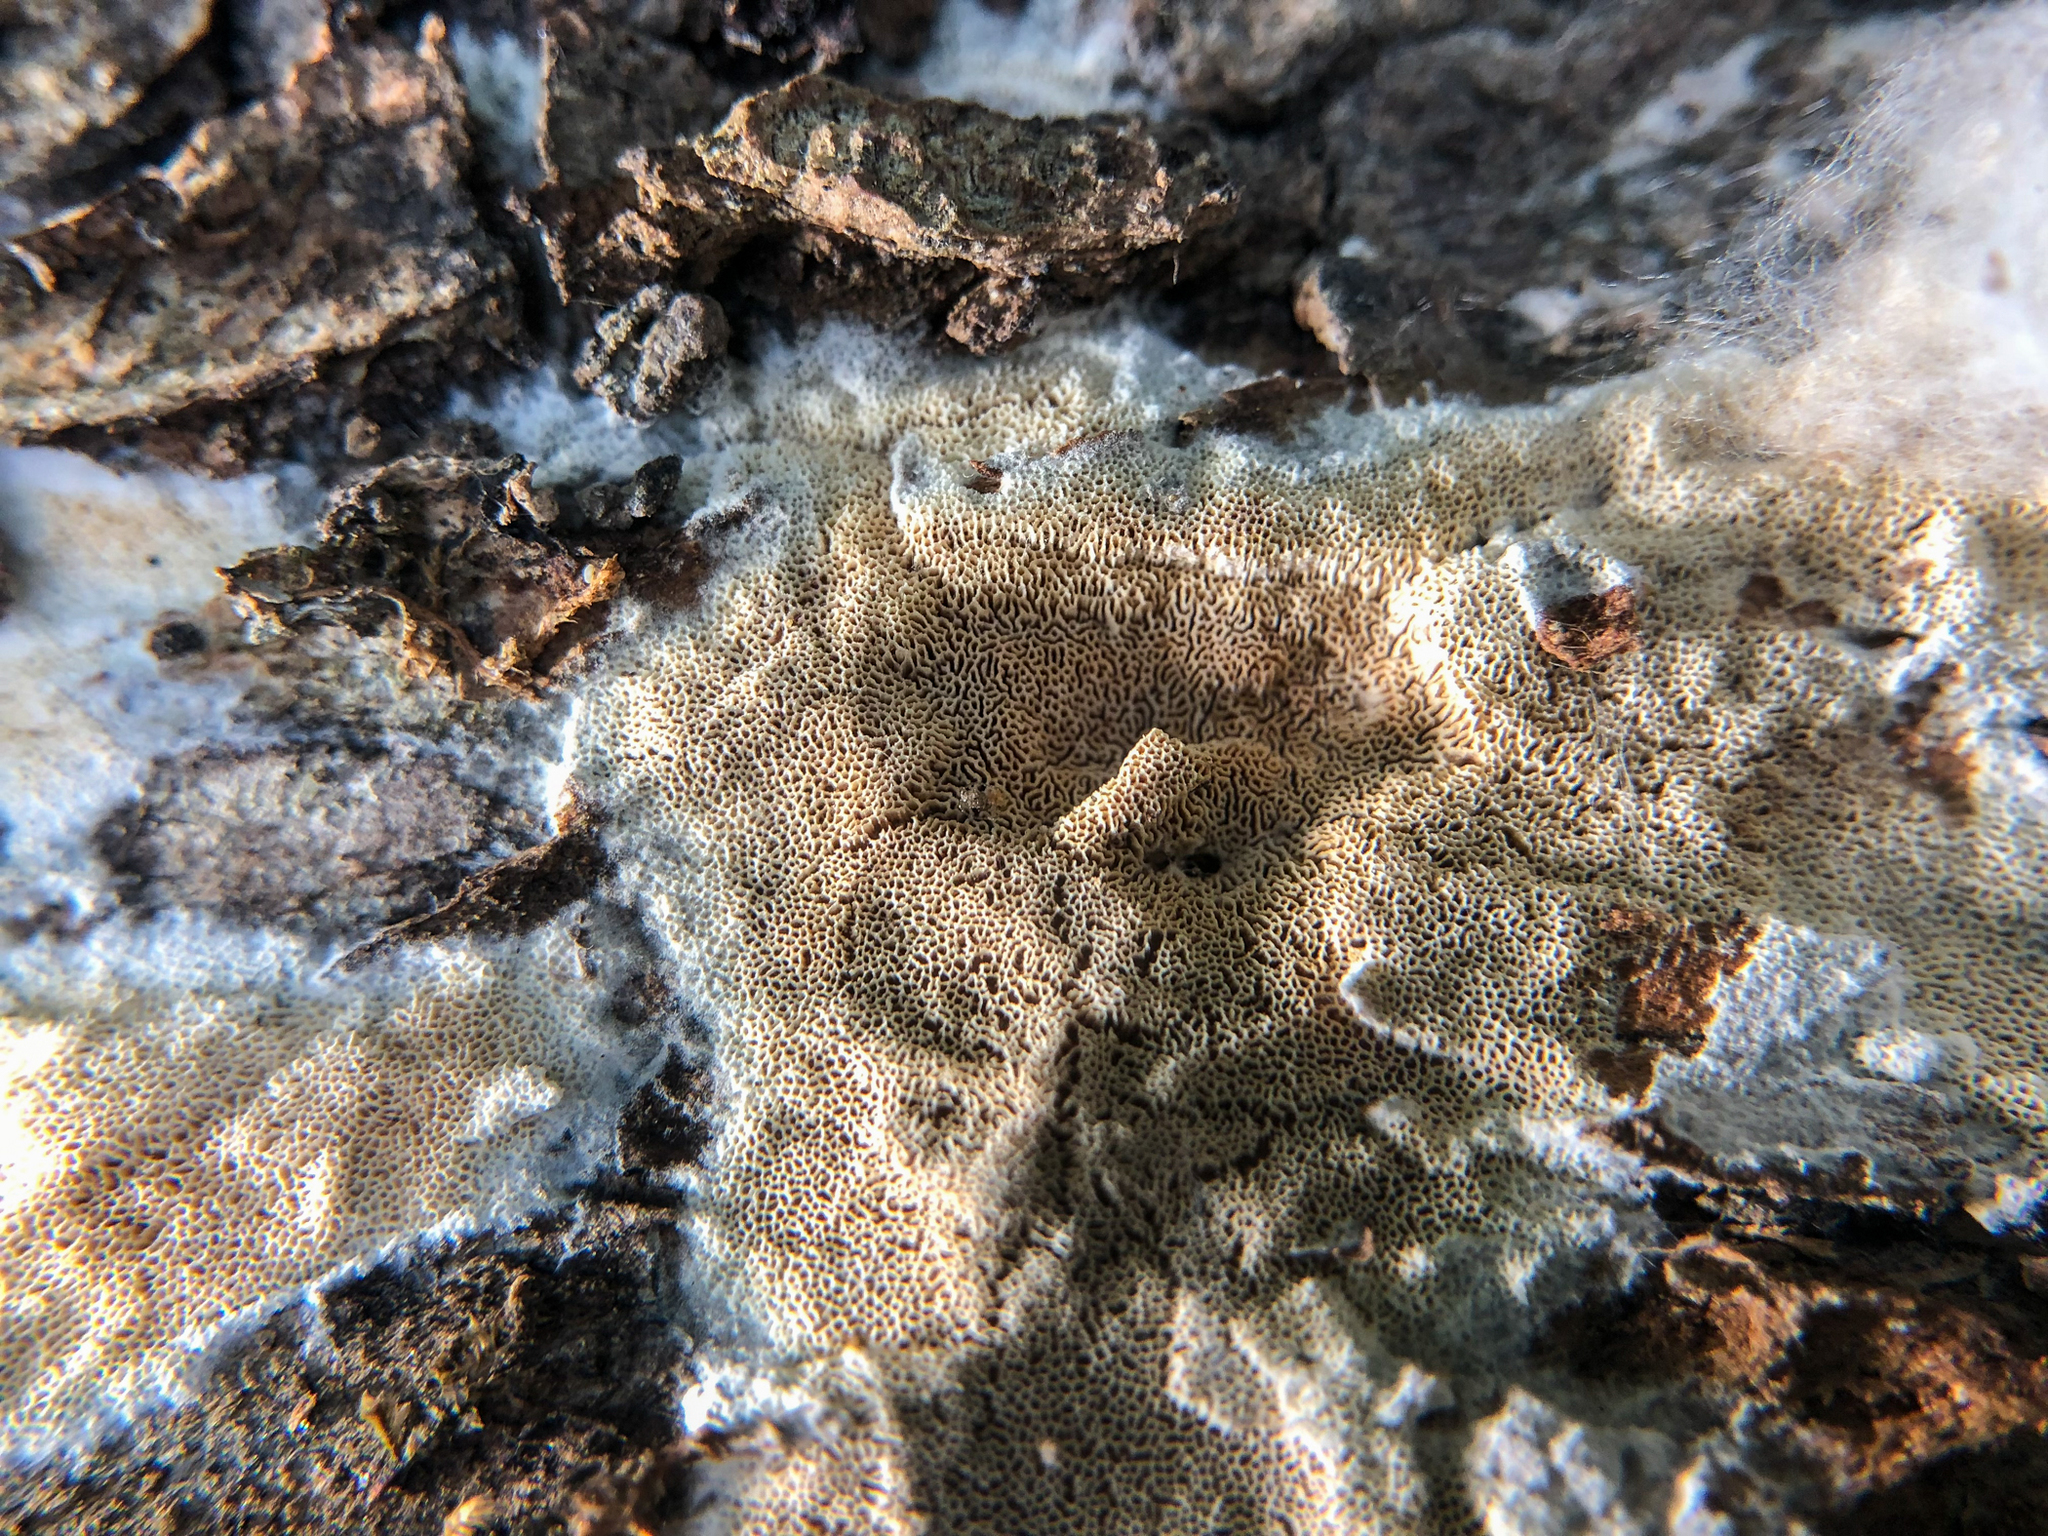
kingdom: Fungi
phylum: Basidiomycota
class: Agaricomycetes
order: Hymenochaetales
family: Schizoporaceae
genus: Xylodon
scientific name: Xylodon subflaviporus
